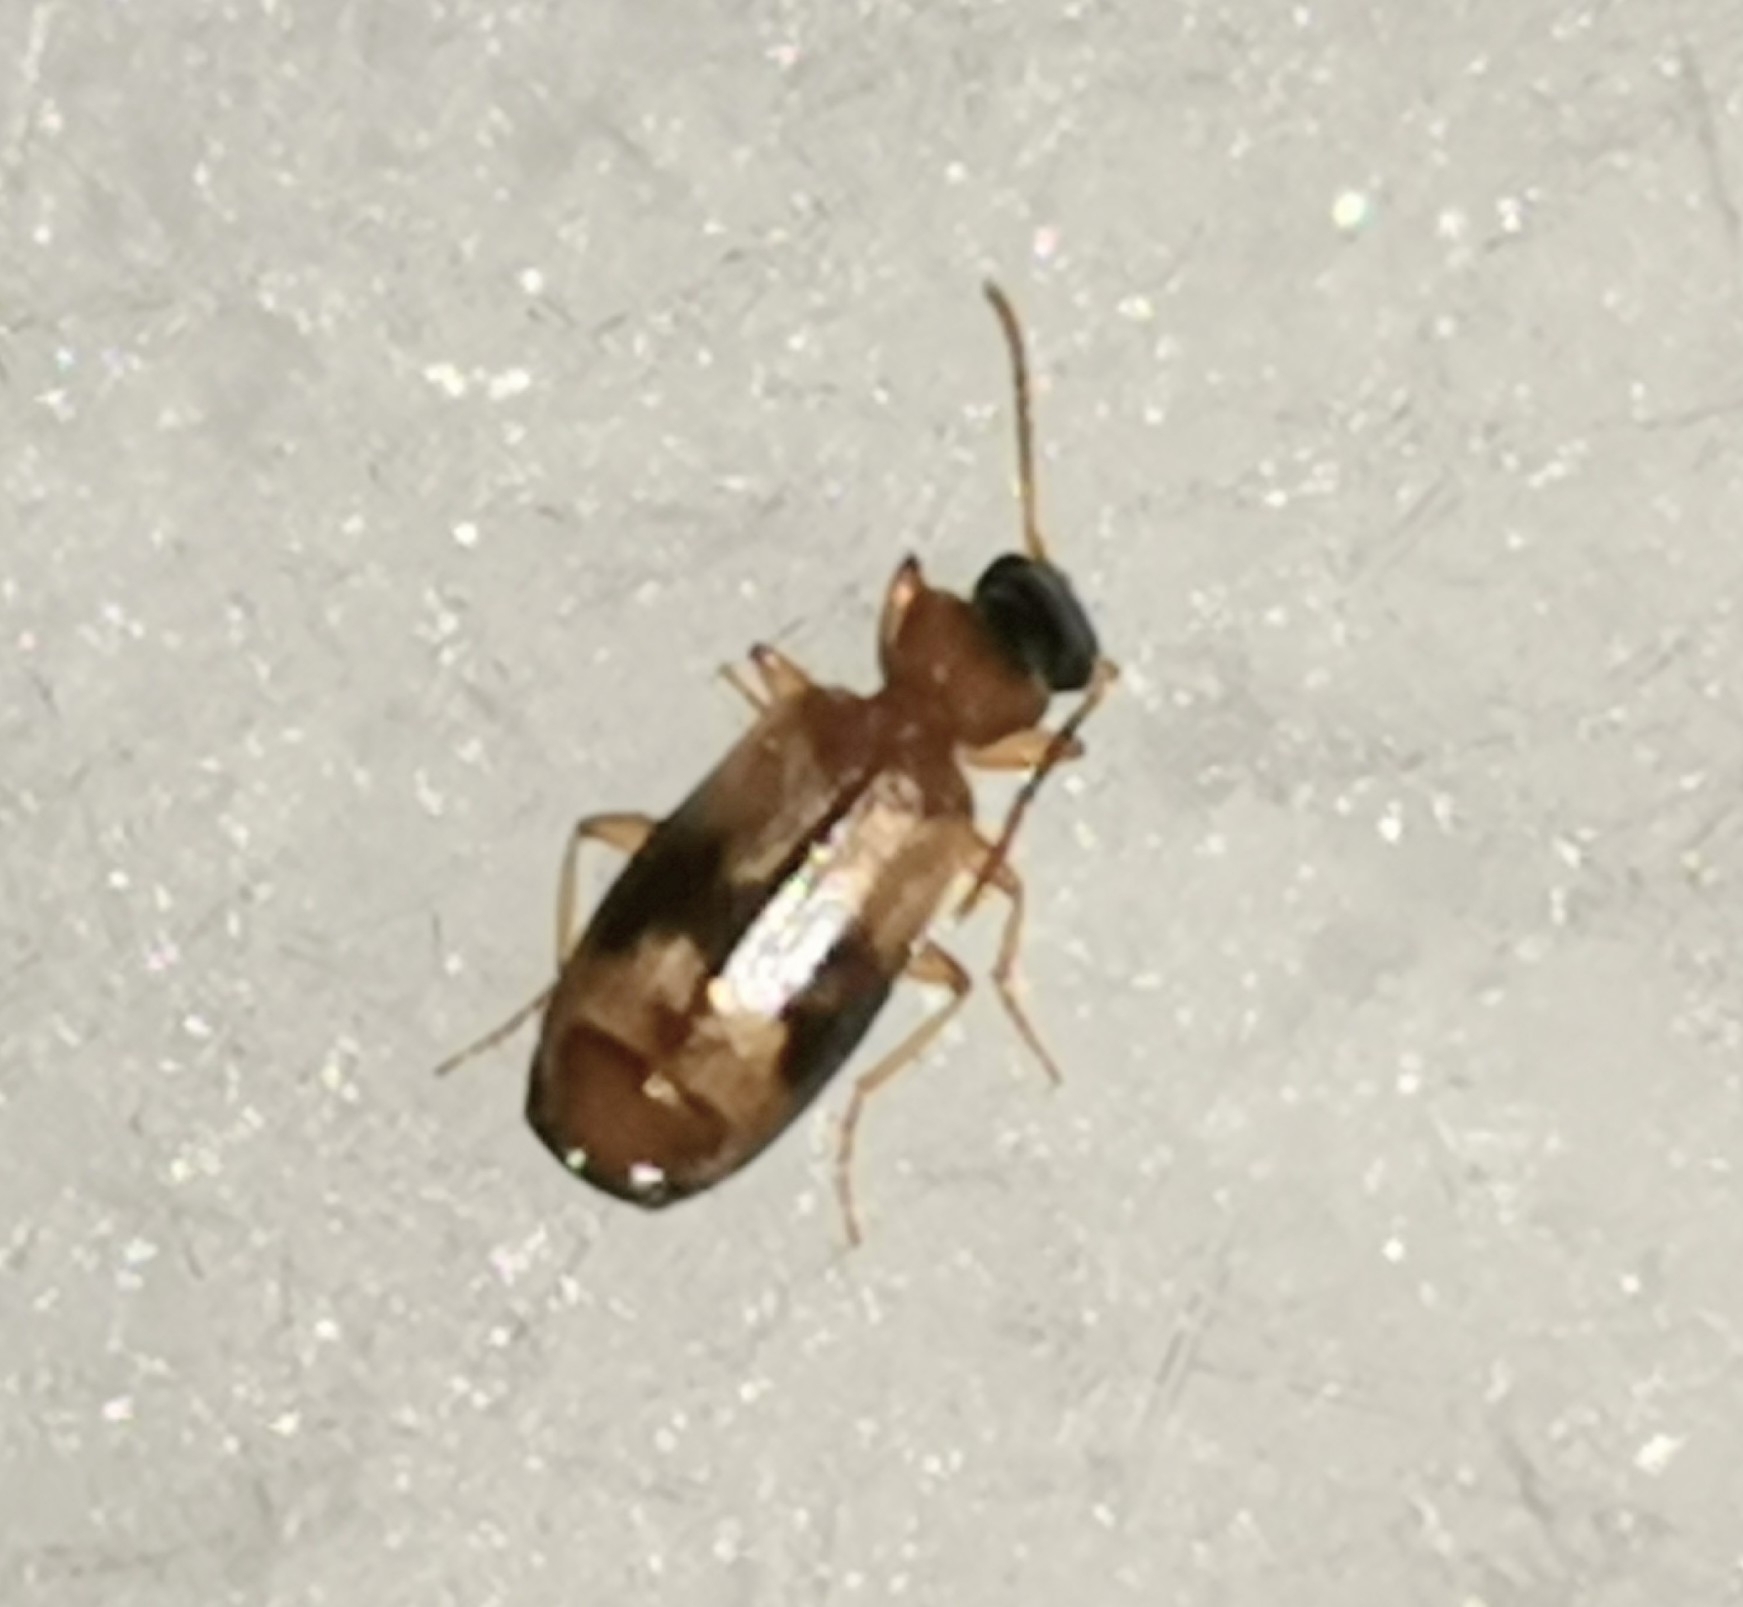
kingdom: Animalia
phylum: Arthropoda
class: Insecta
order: Coleoptera
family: Carabidae
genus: Philorhizus
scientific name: Philorhizus sigma
